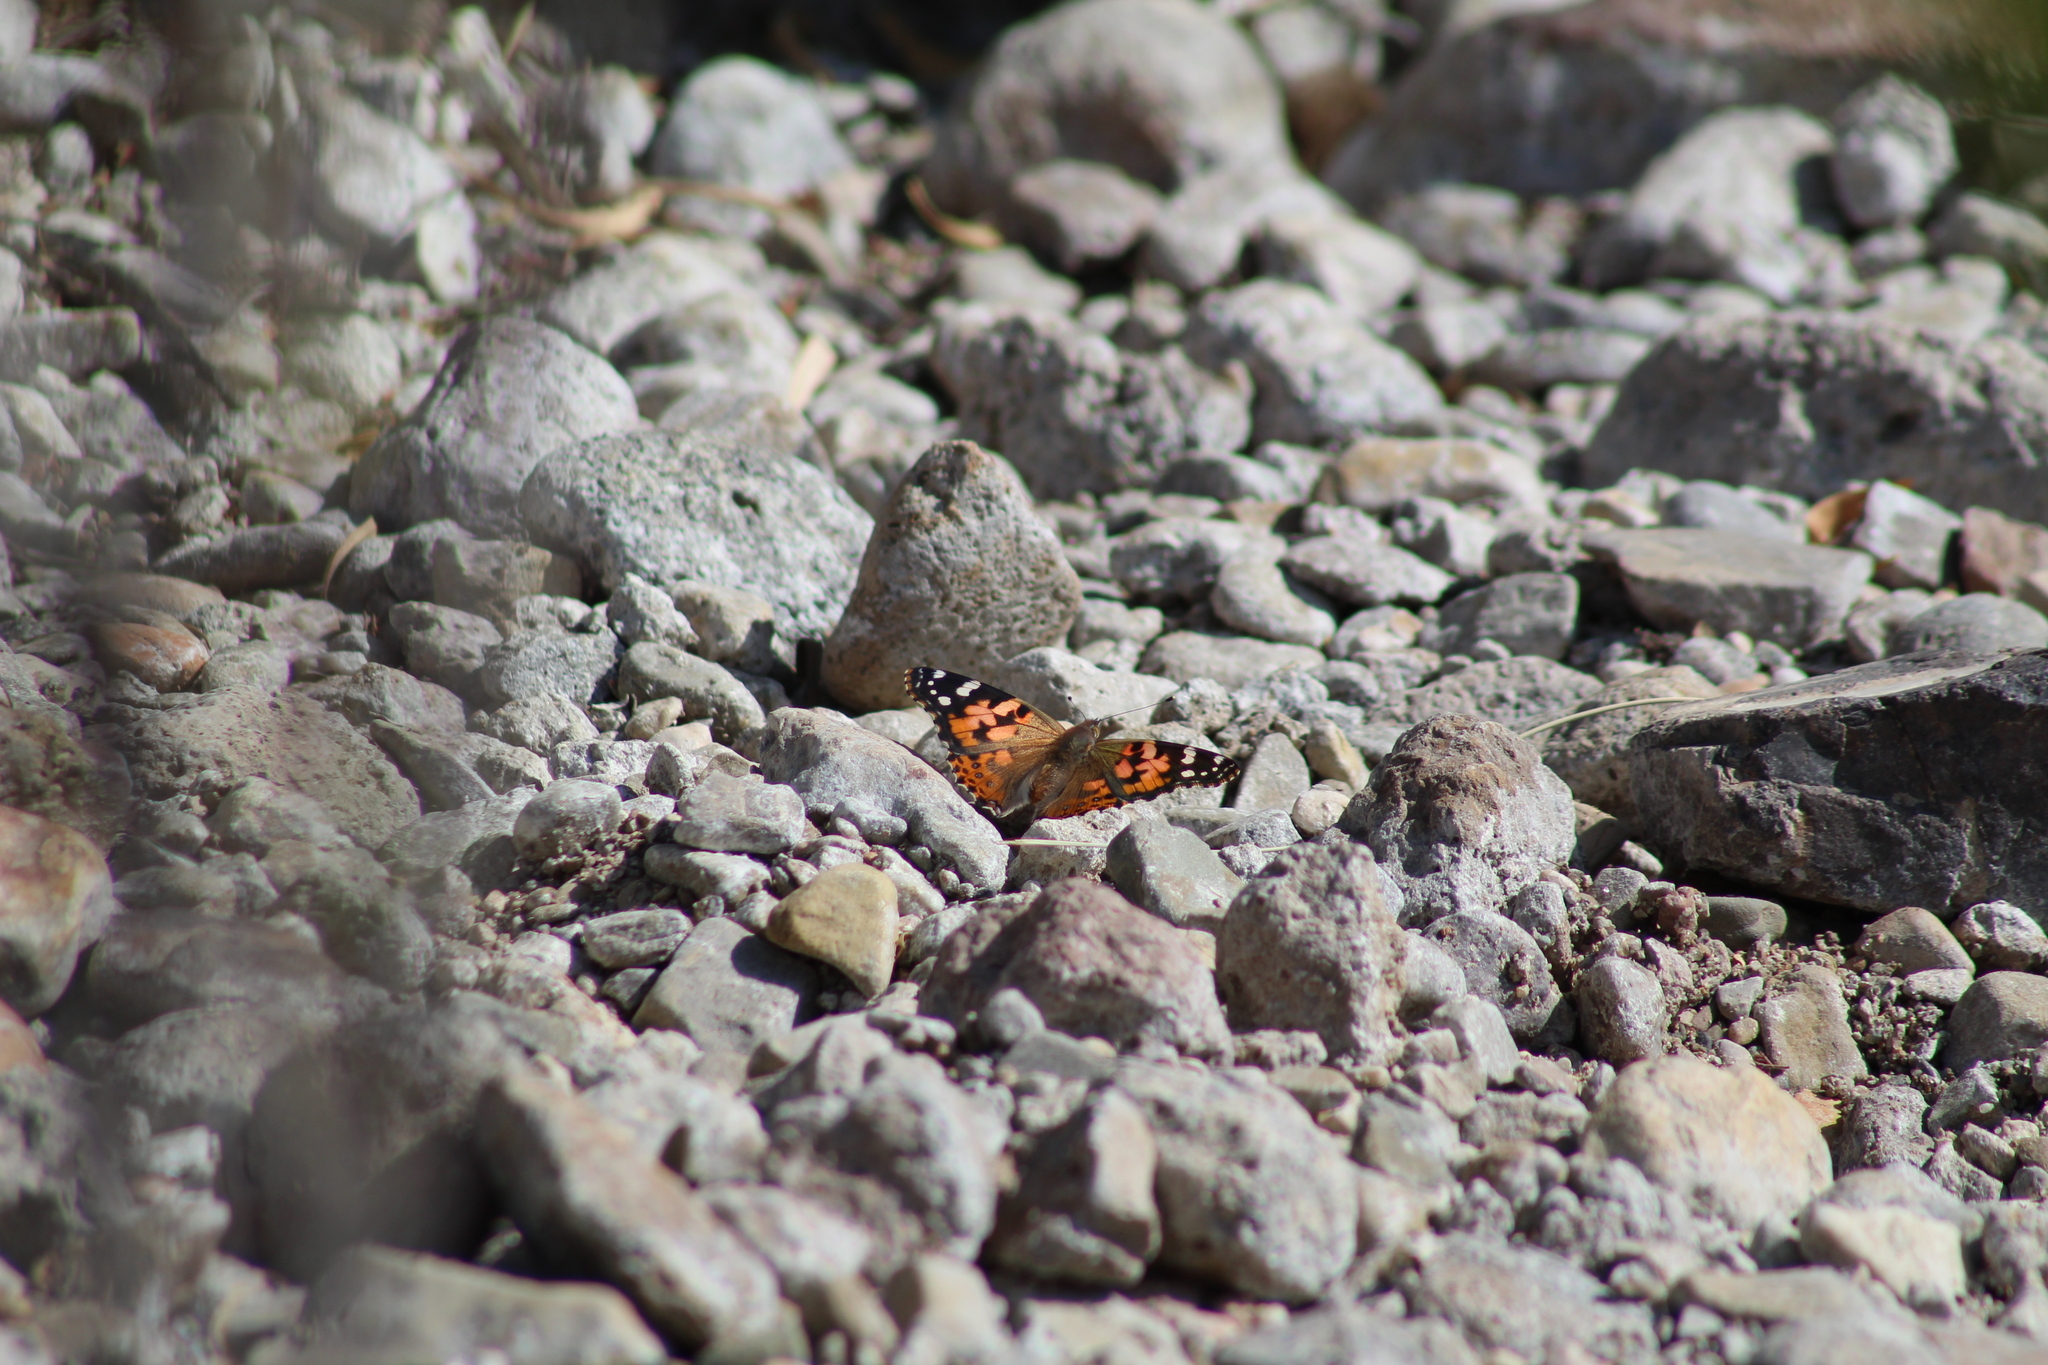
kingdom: Animalia
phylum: Arthropoda
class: Insecta
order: Lepidoptera
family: Nymphalidae
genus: Vanessa
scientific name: Vanessa cardui
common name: Painted lady
